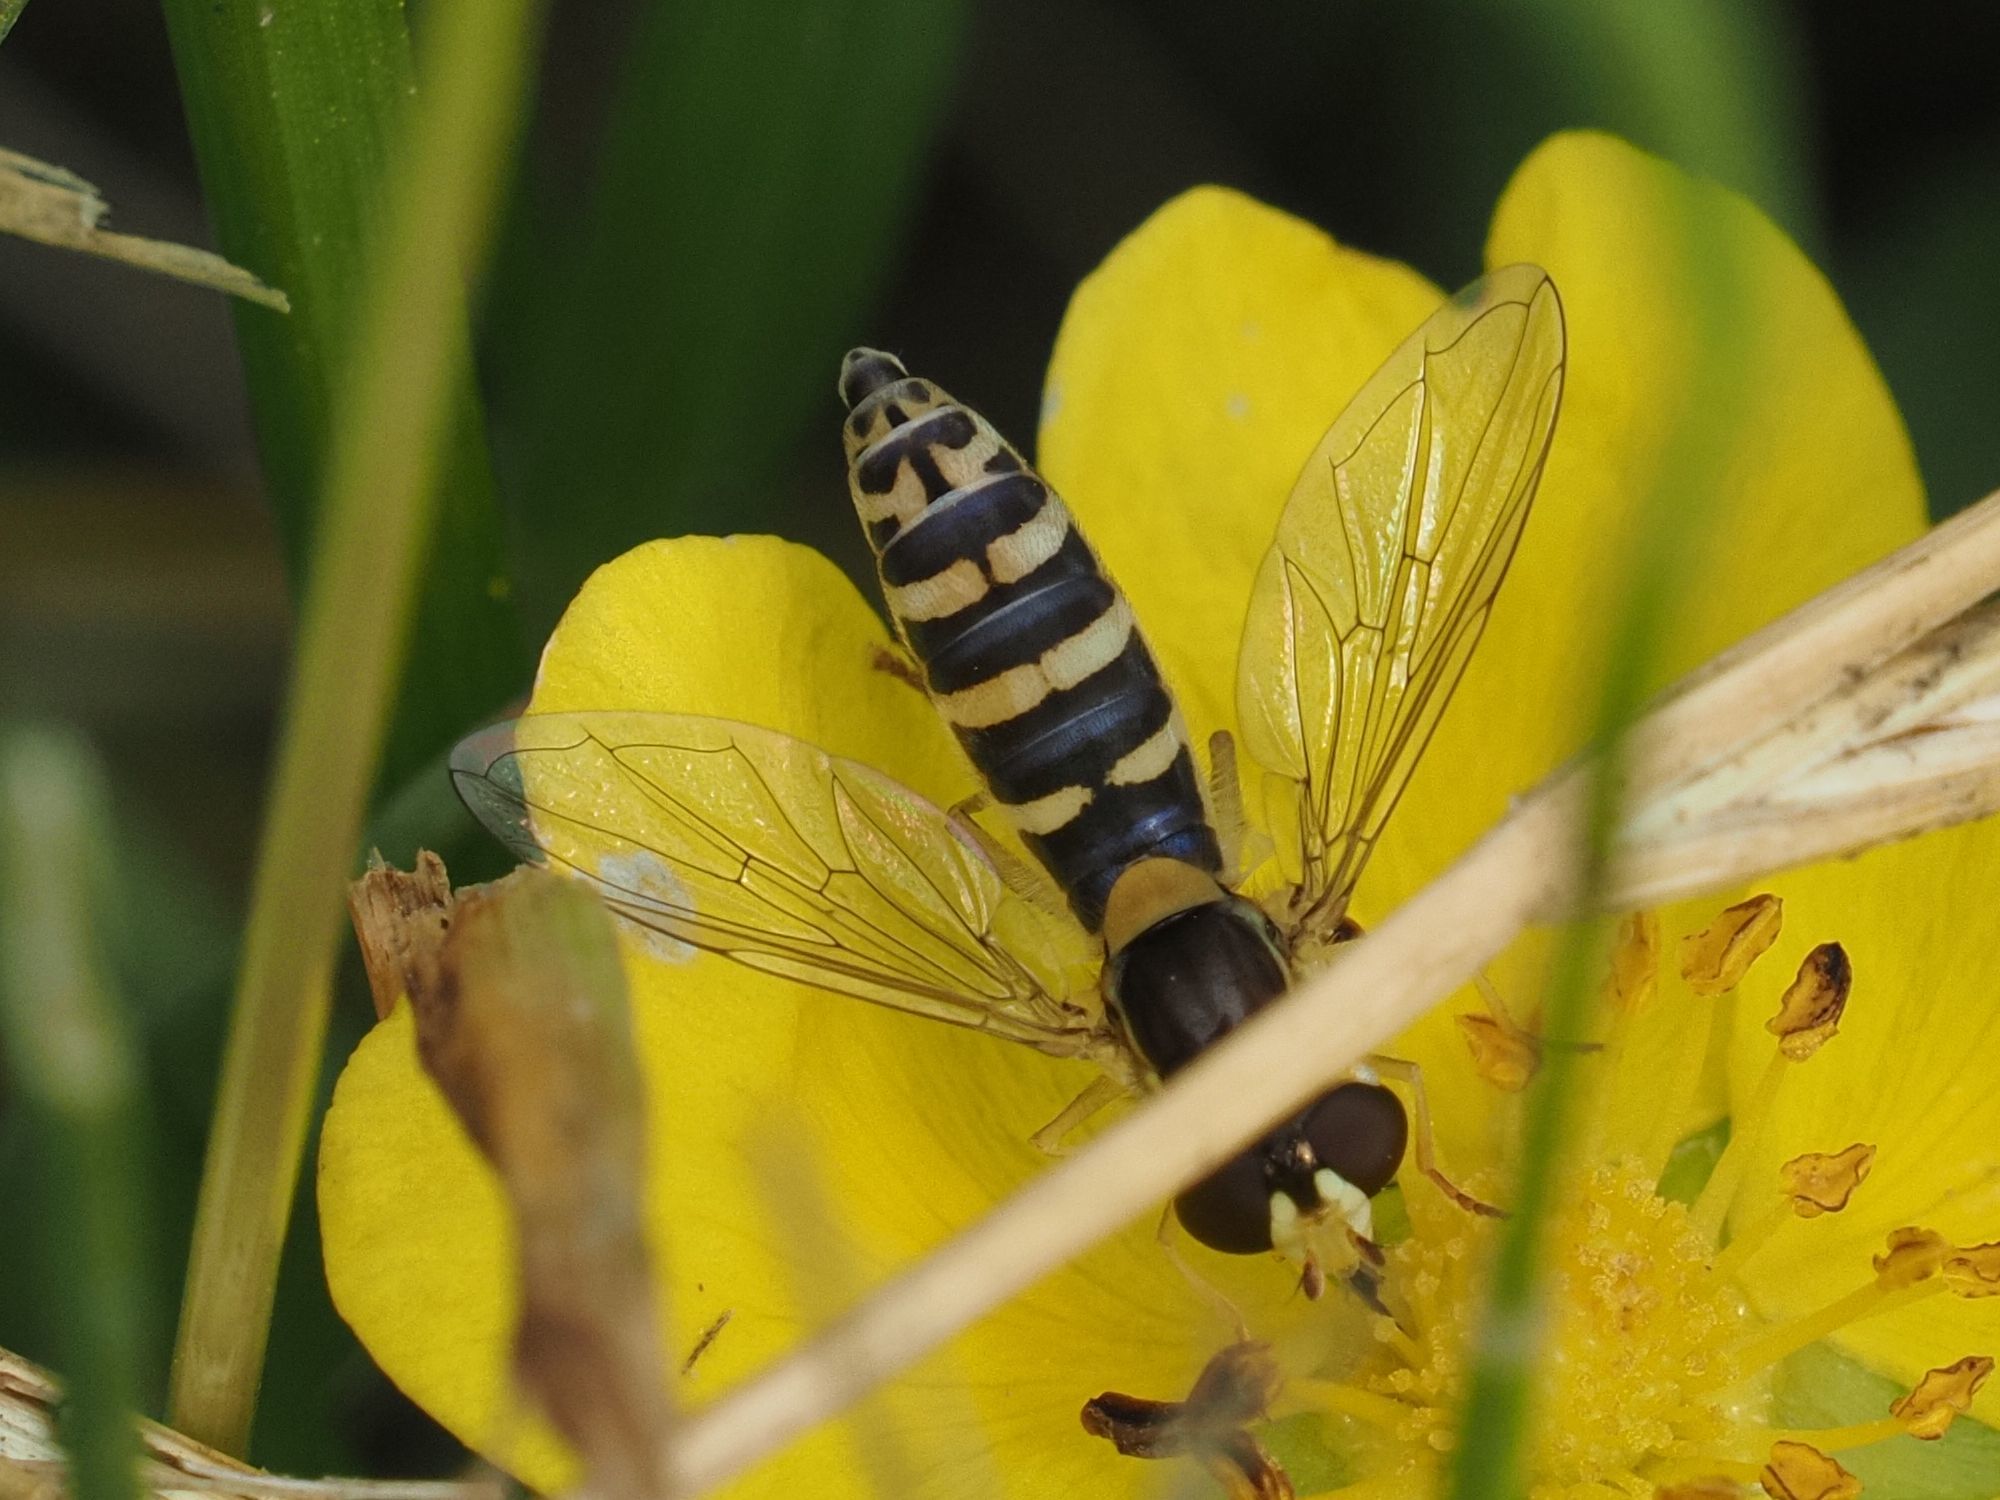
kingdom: Animalia
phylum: Arthropoda
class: Insecta
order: Diptera
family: Syrphidae
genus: Sphaerophoria
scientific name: Sphaerophoria
